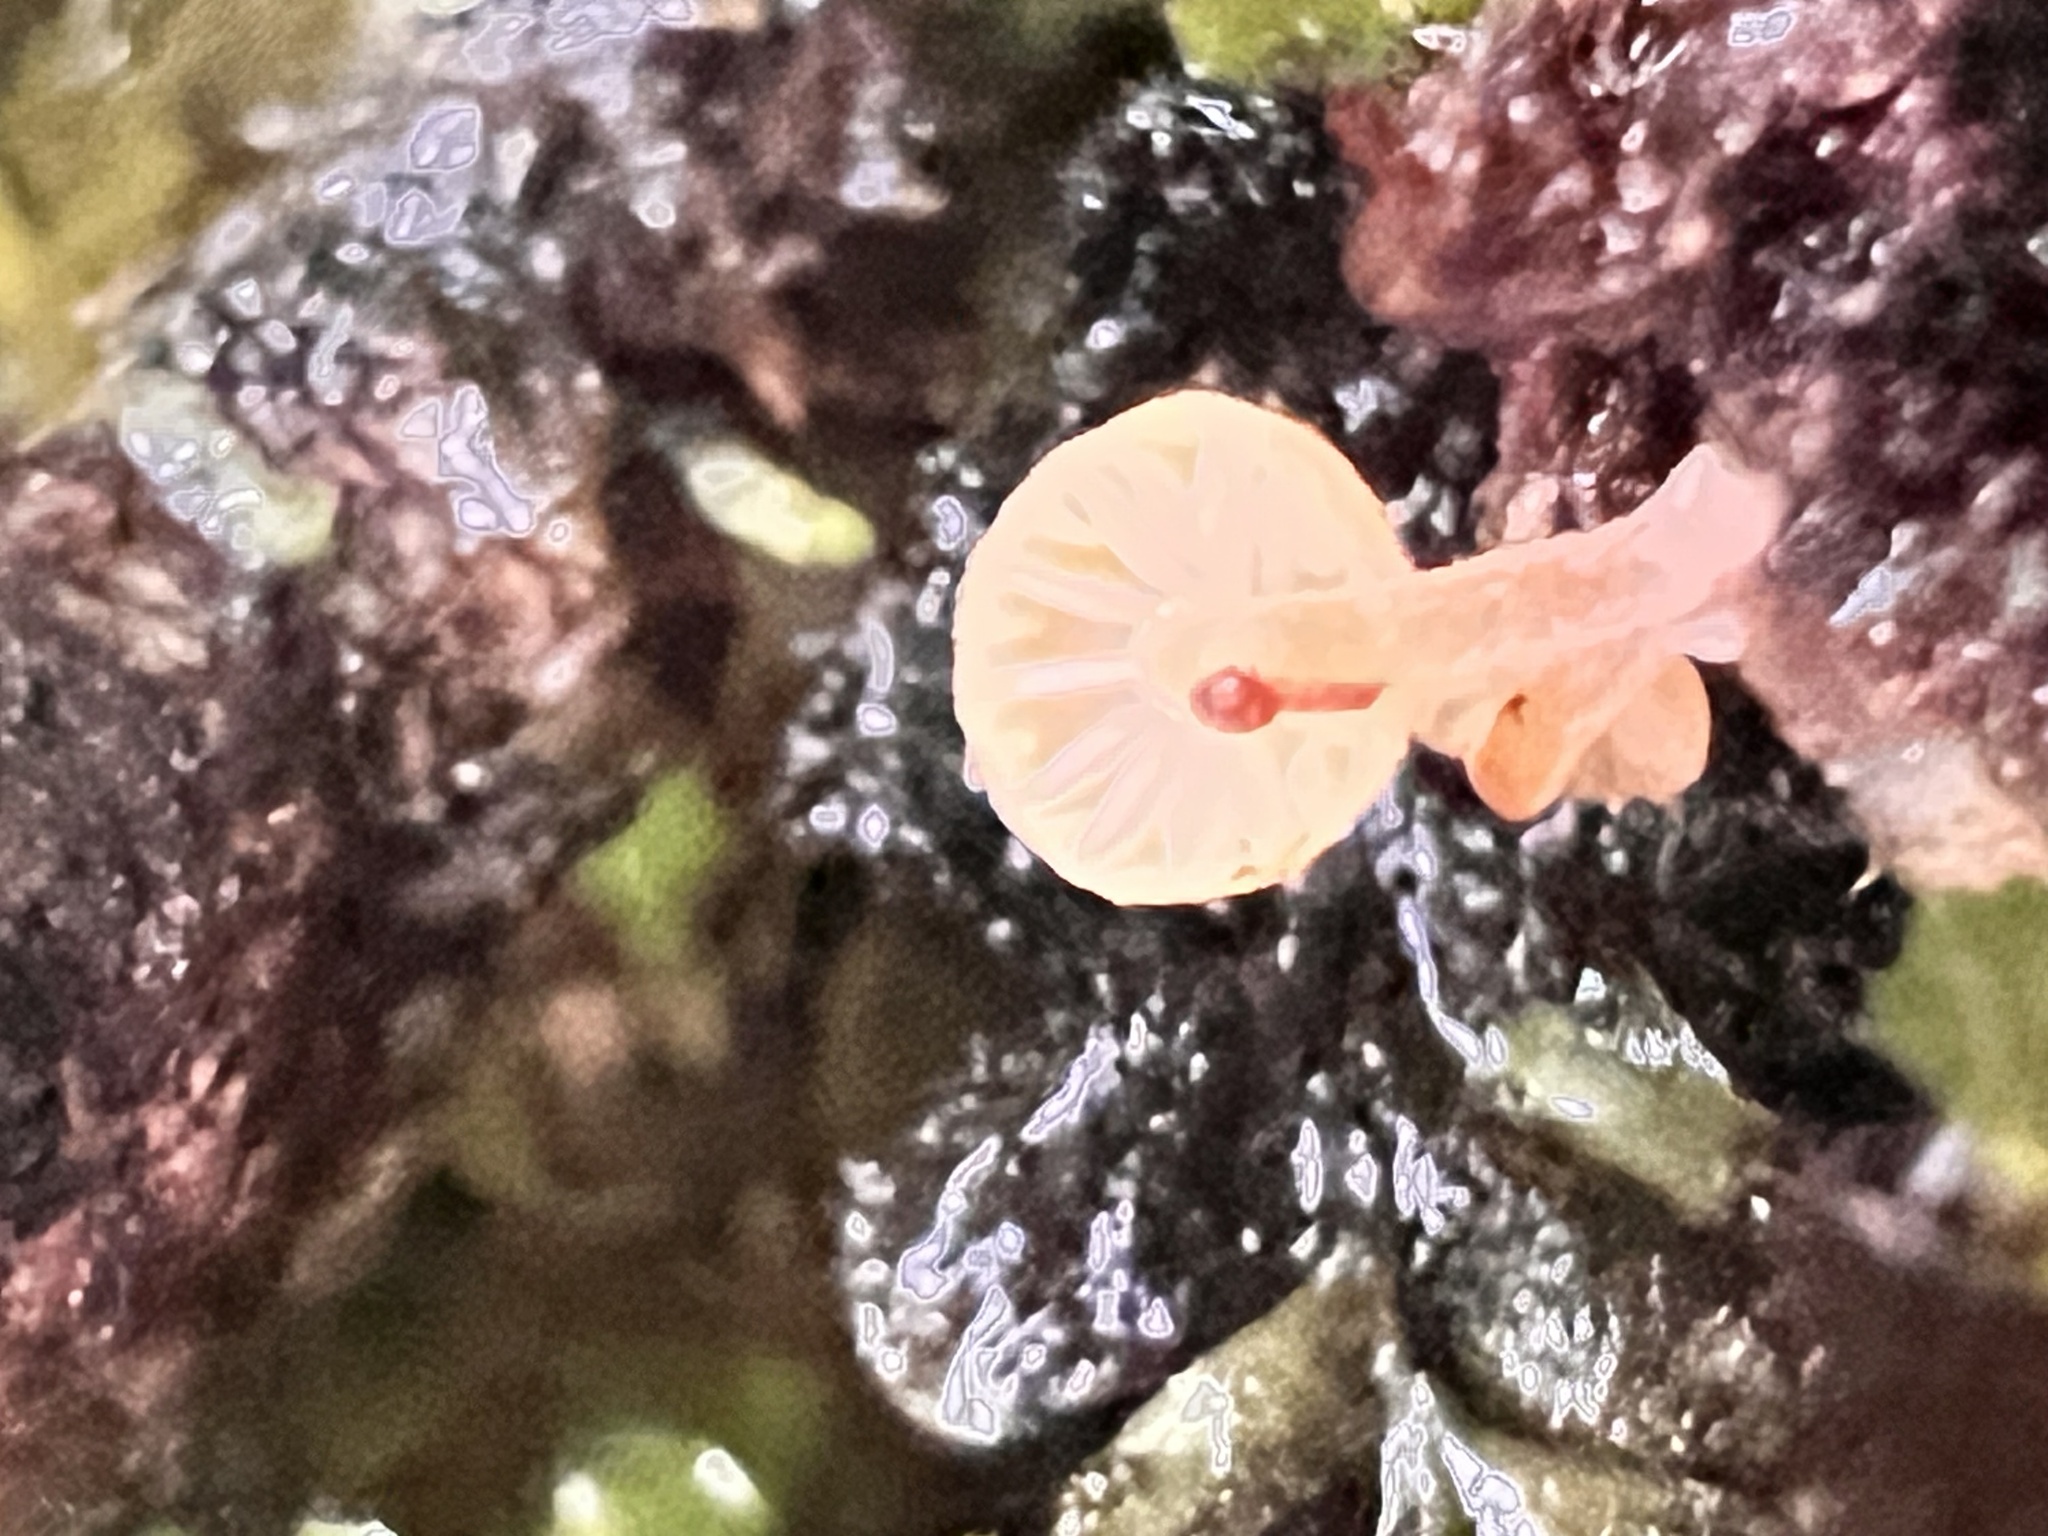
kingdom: Fungi
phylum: Basidiomycota
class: Agaricomycetes
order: Agaricales
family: Mycenaceae
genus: Mycena
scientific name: Mycena roseoflava
